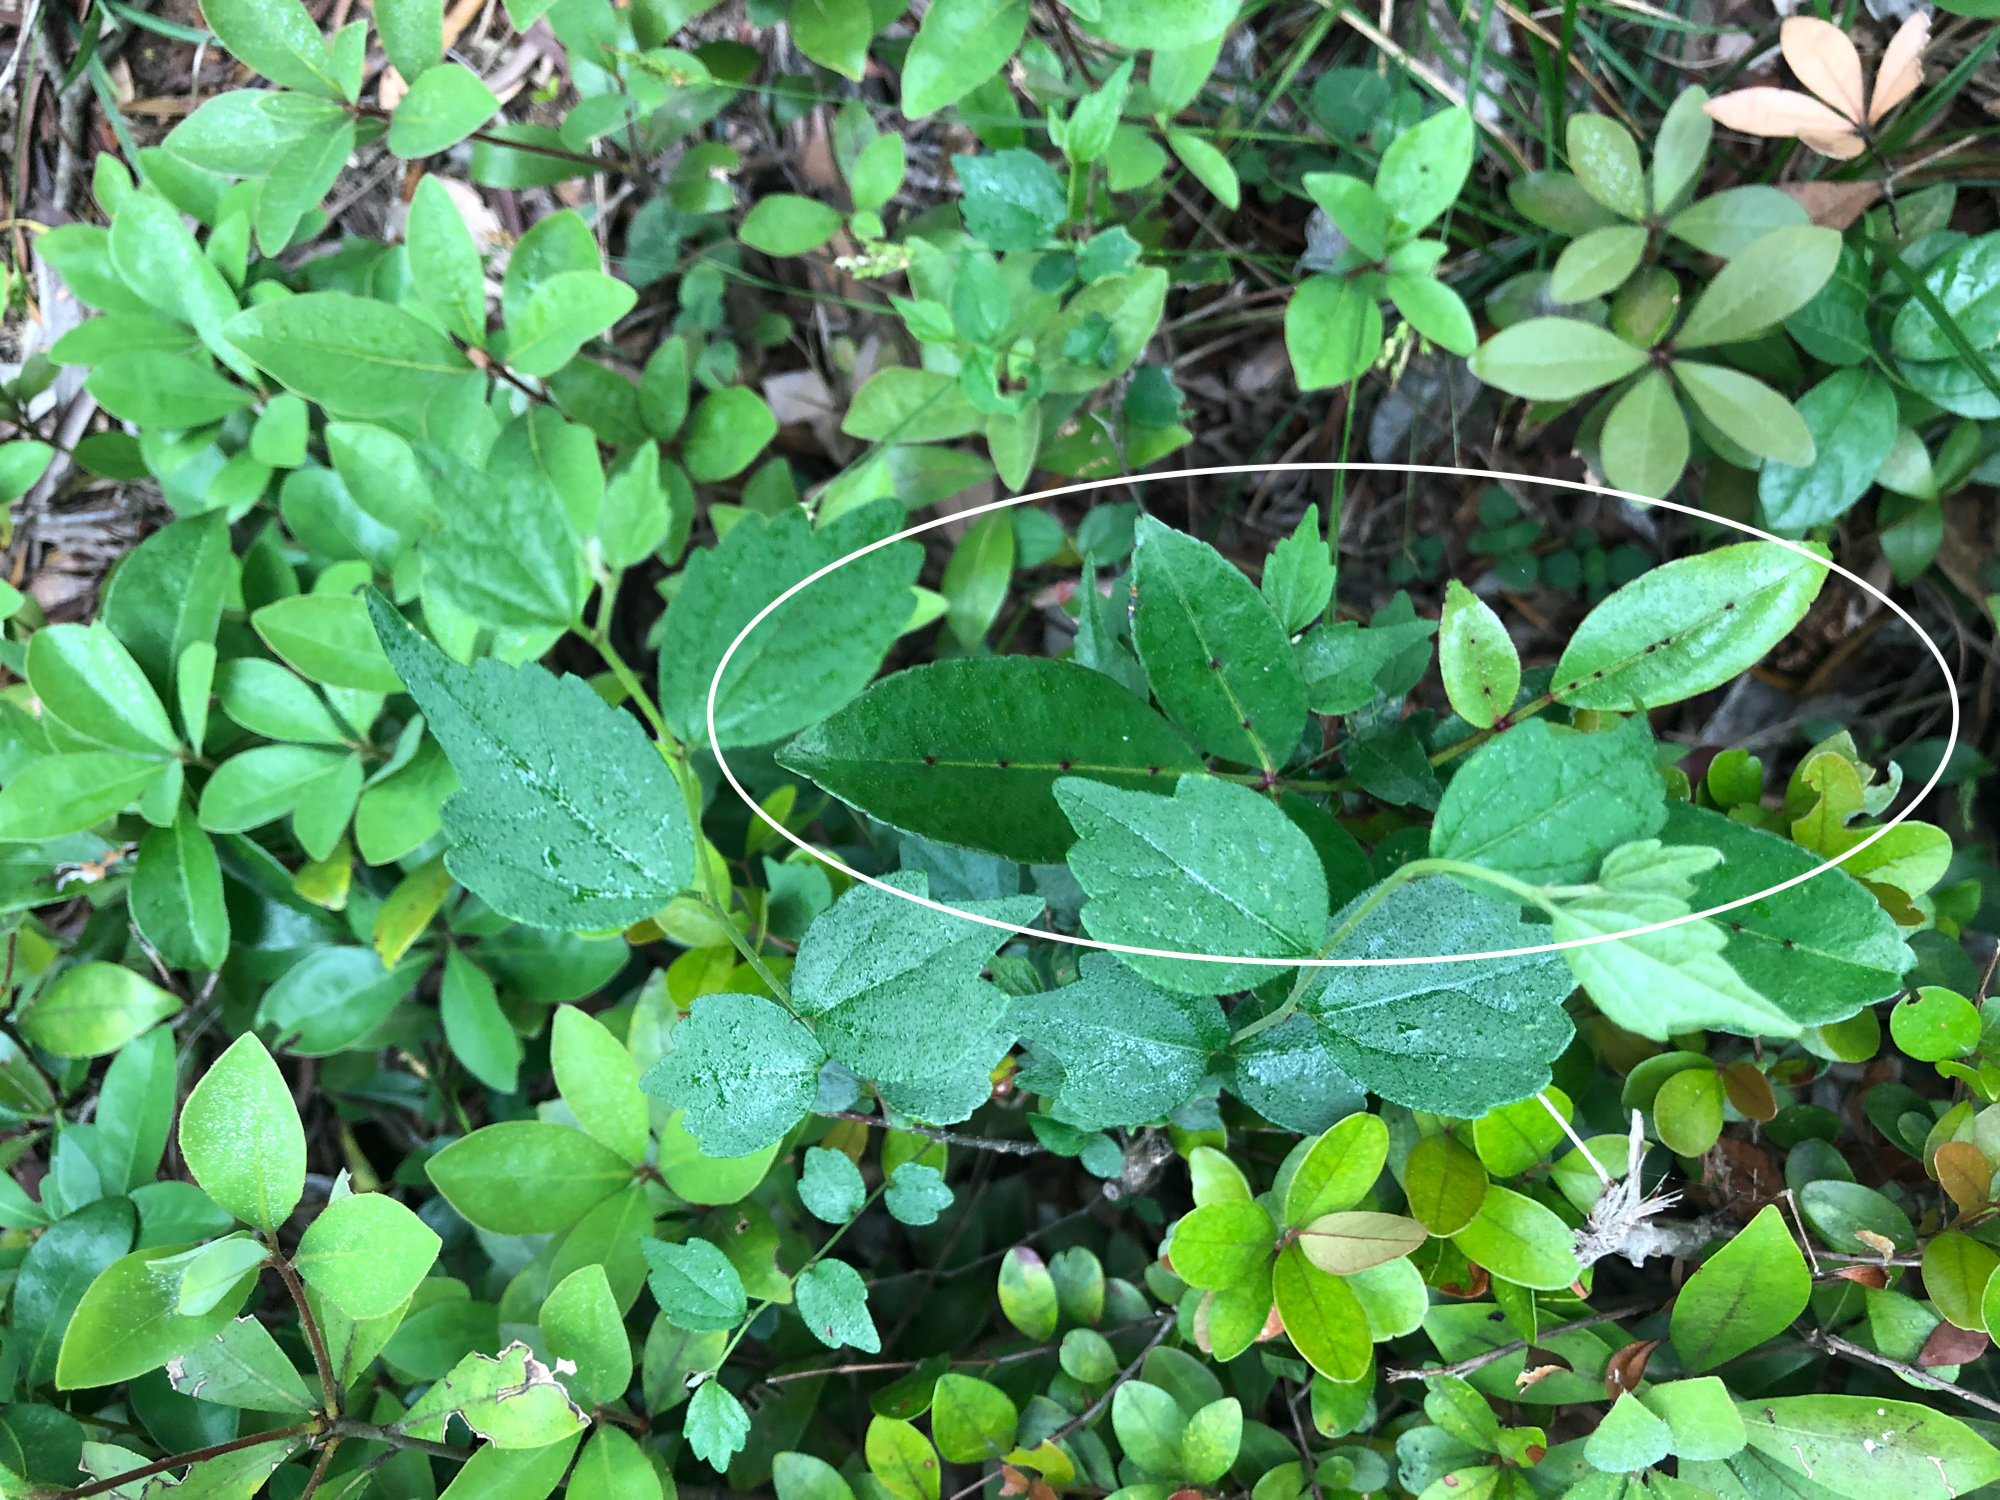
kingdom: Plantae
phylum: Tracheophyta
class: Magnoliopsida
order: Sapindales
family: Rutaceae
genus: Zanthoxylum
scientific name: Zanthoxylum nitidum
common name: Shiny-leaf prickly-ash
